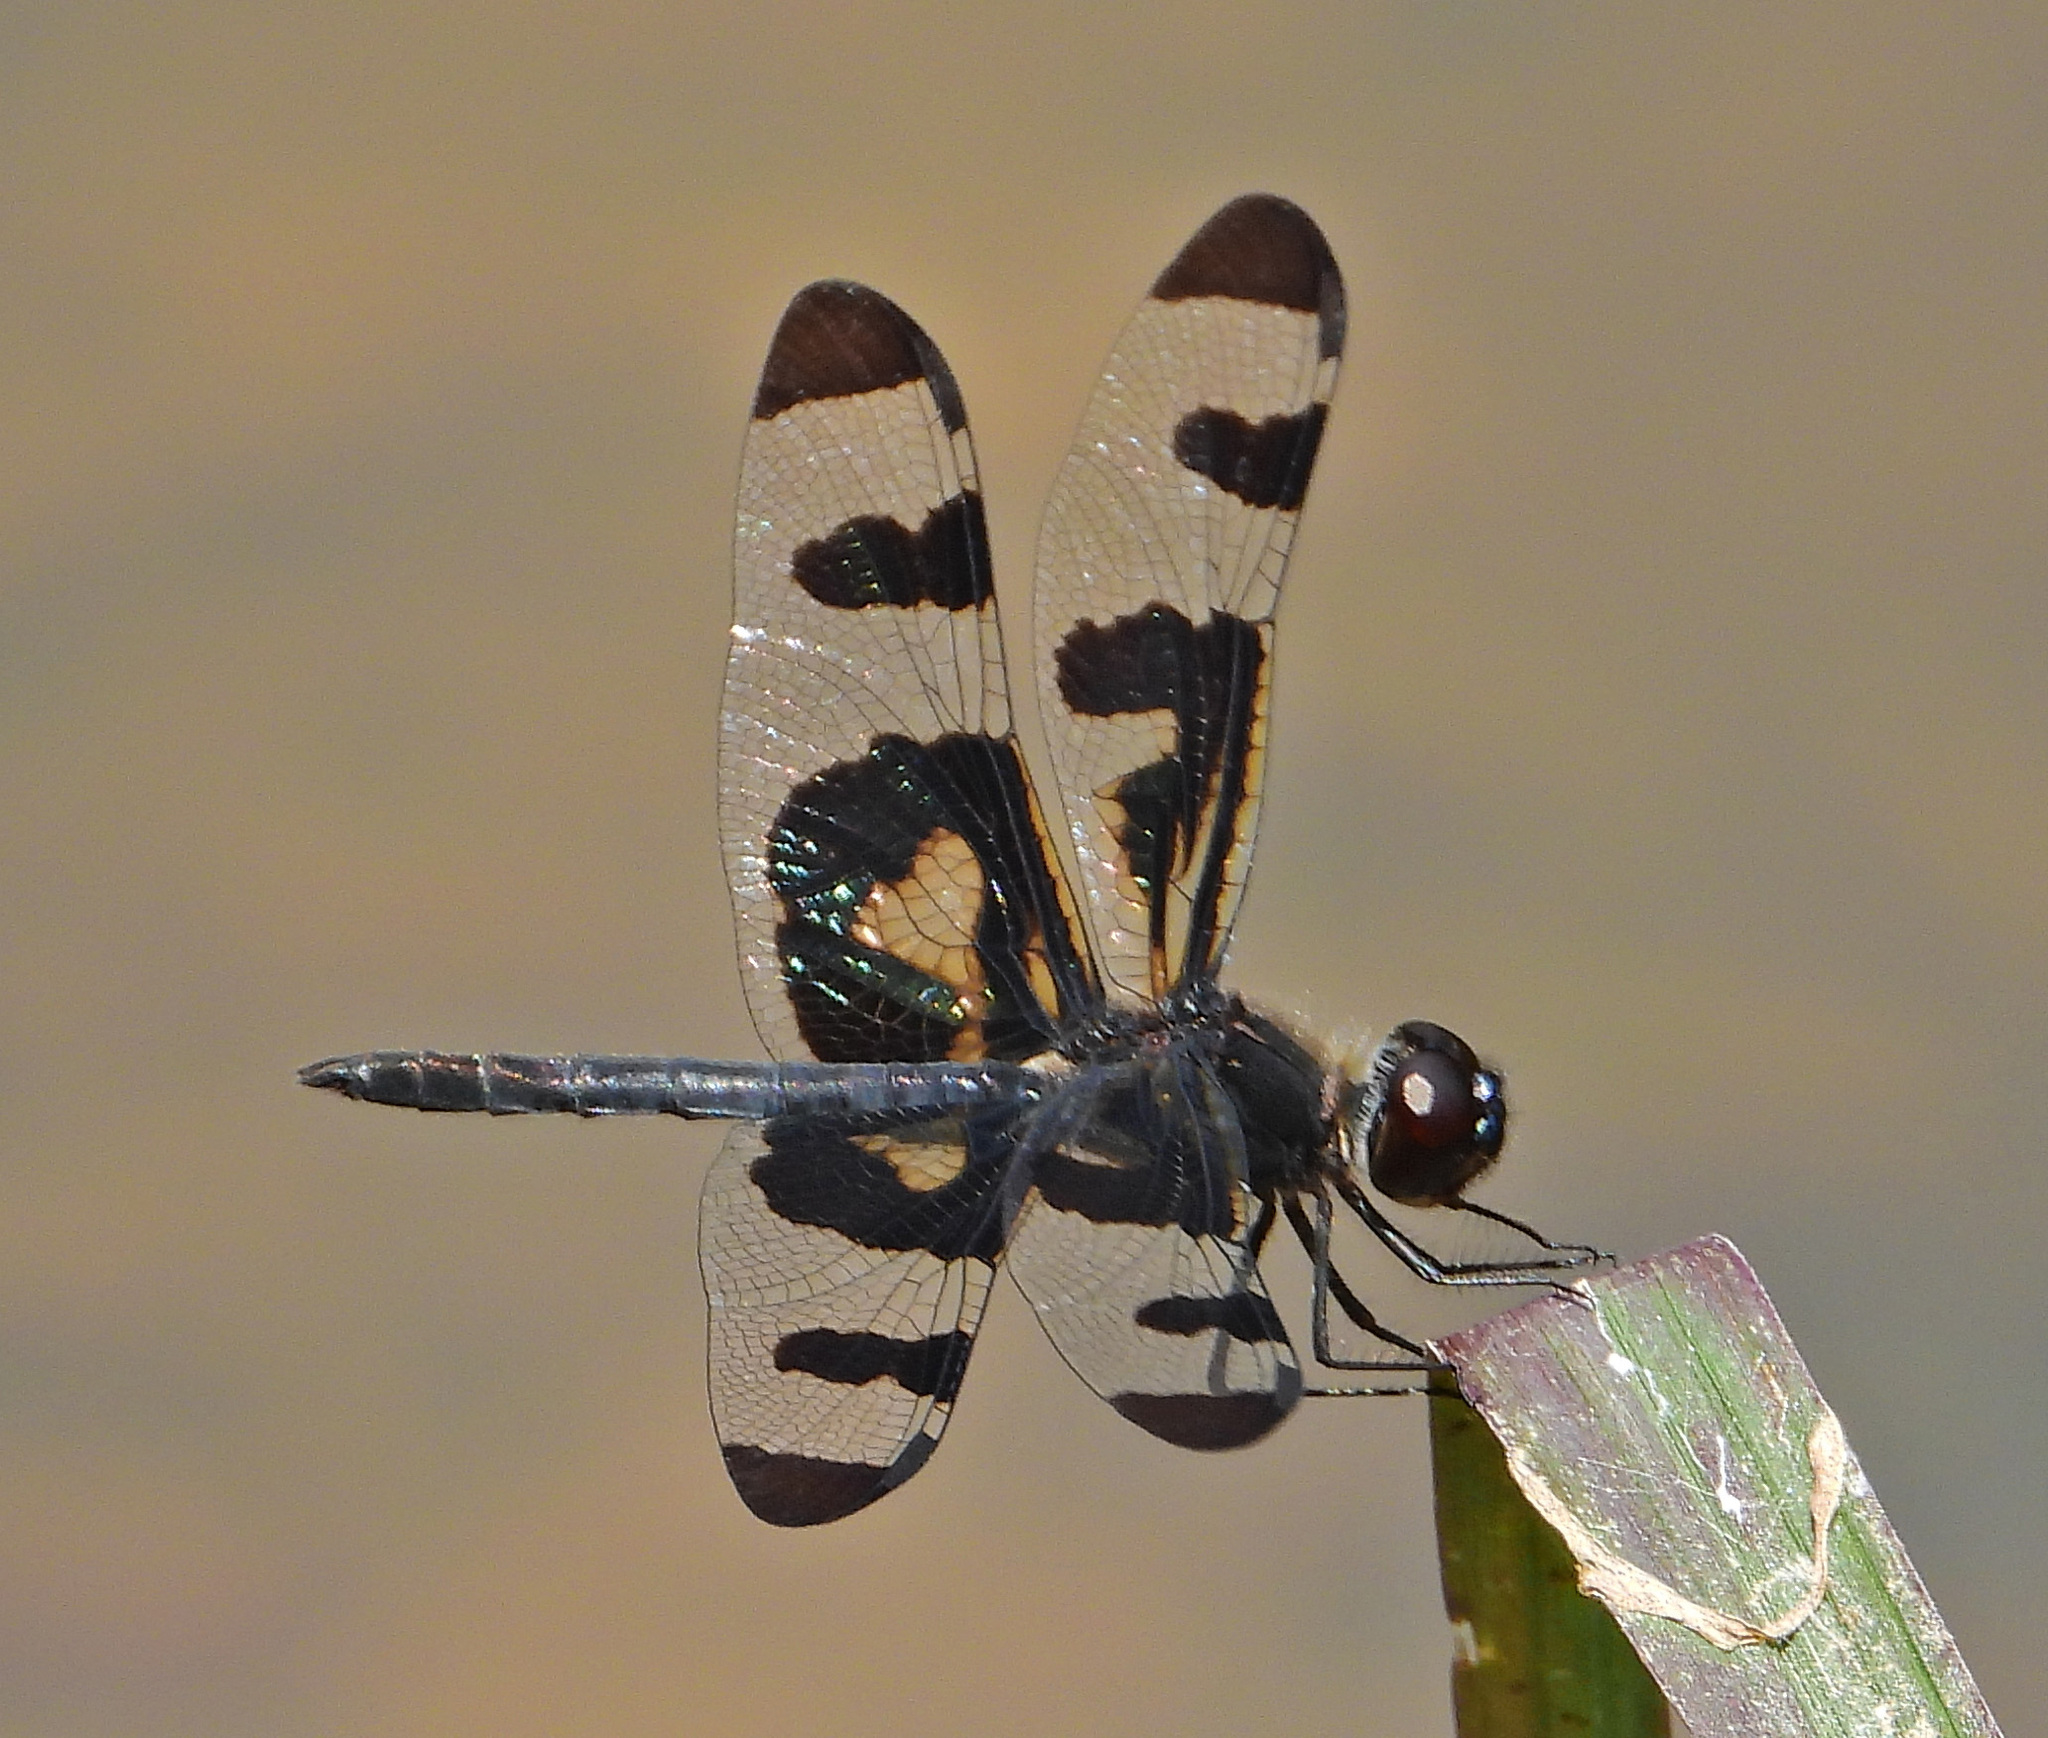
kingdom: Animalia
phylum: Arthropoda
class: Insecta
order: Odonata
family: Libellulidae
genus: Celithemis
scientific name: Celithemis fasciata
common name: Banded pennant
